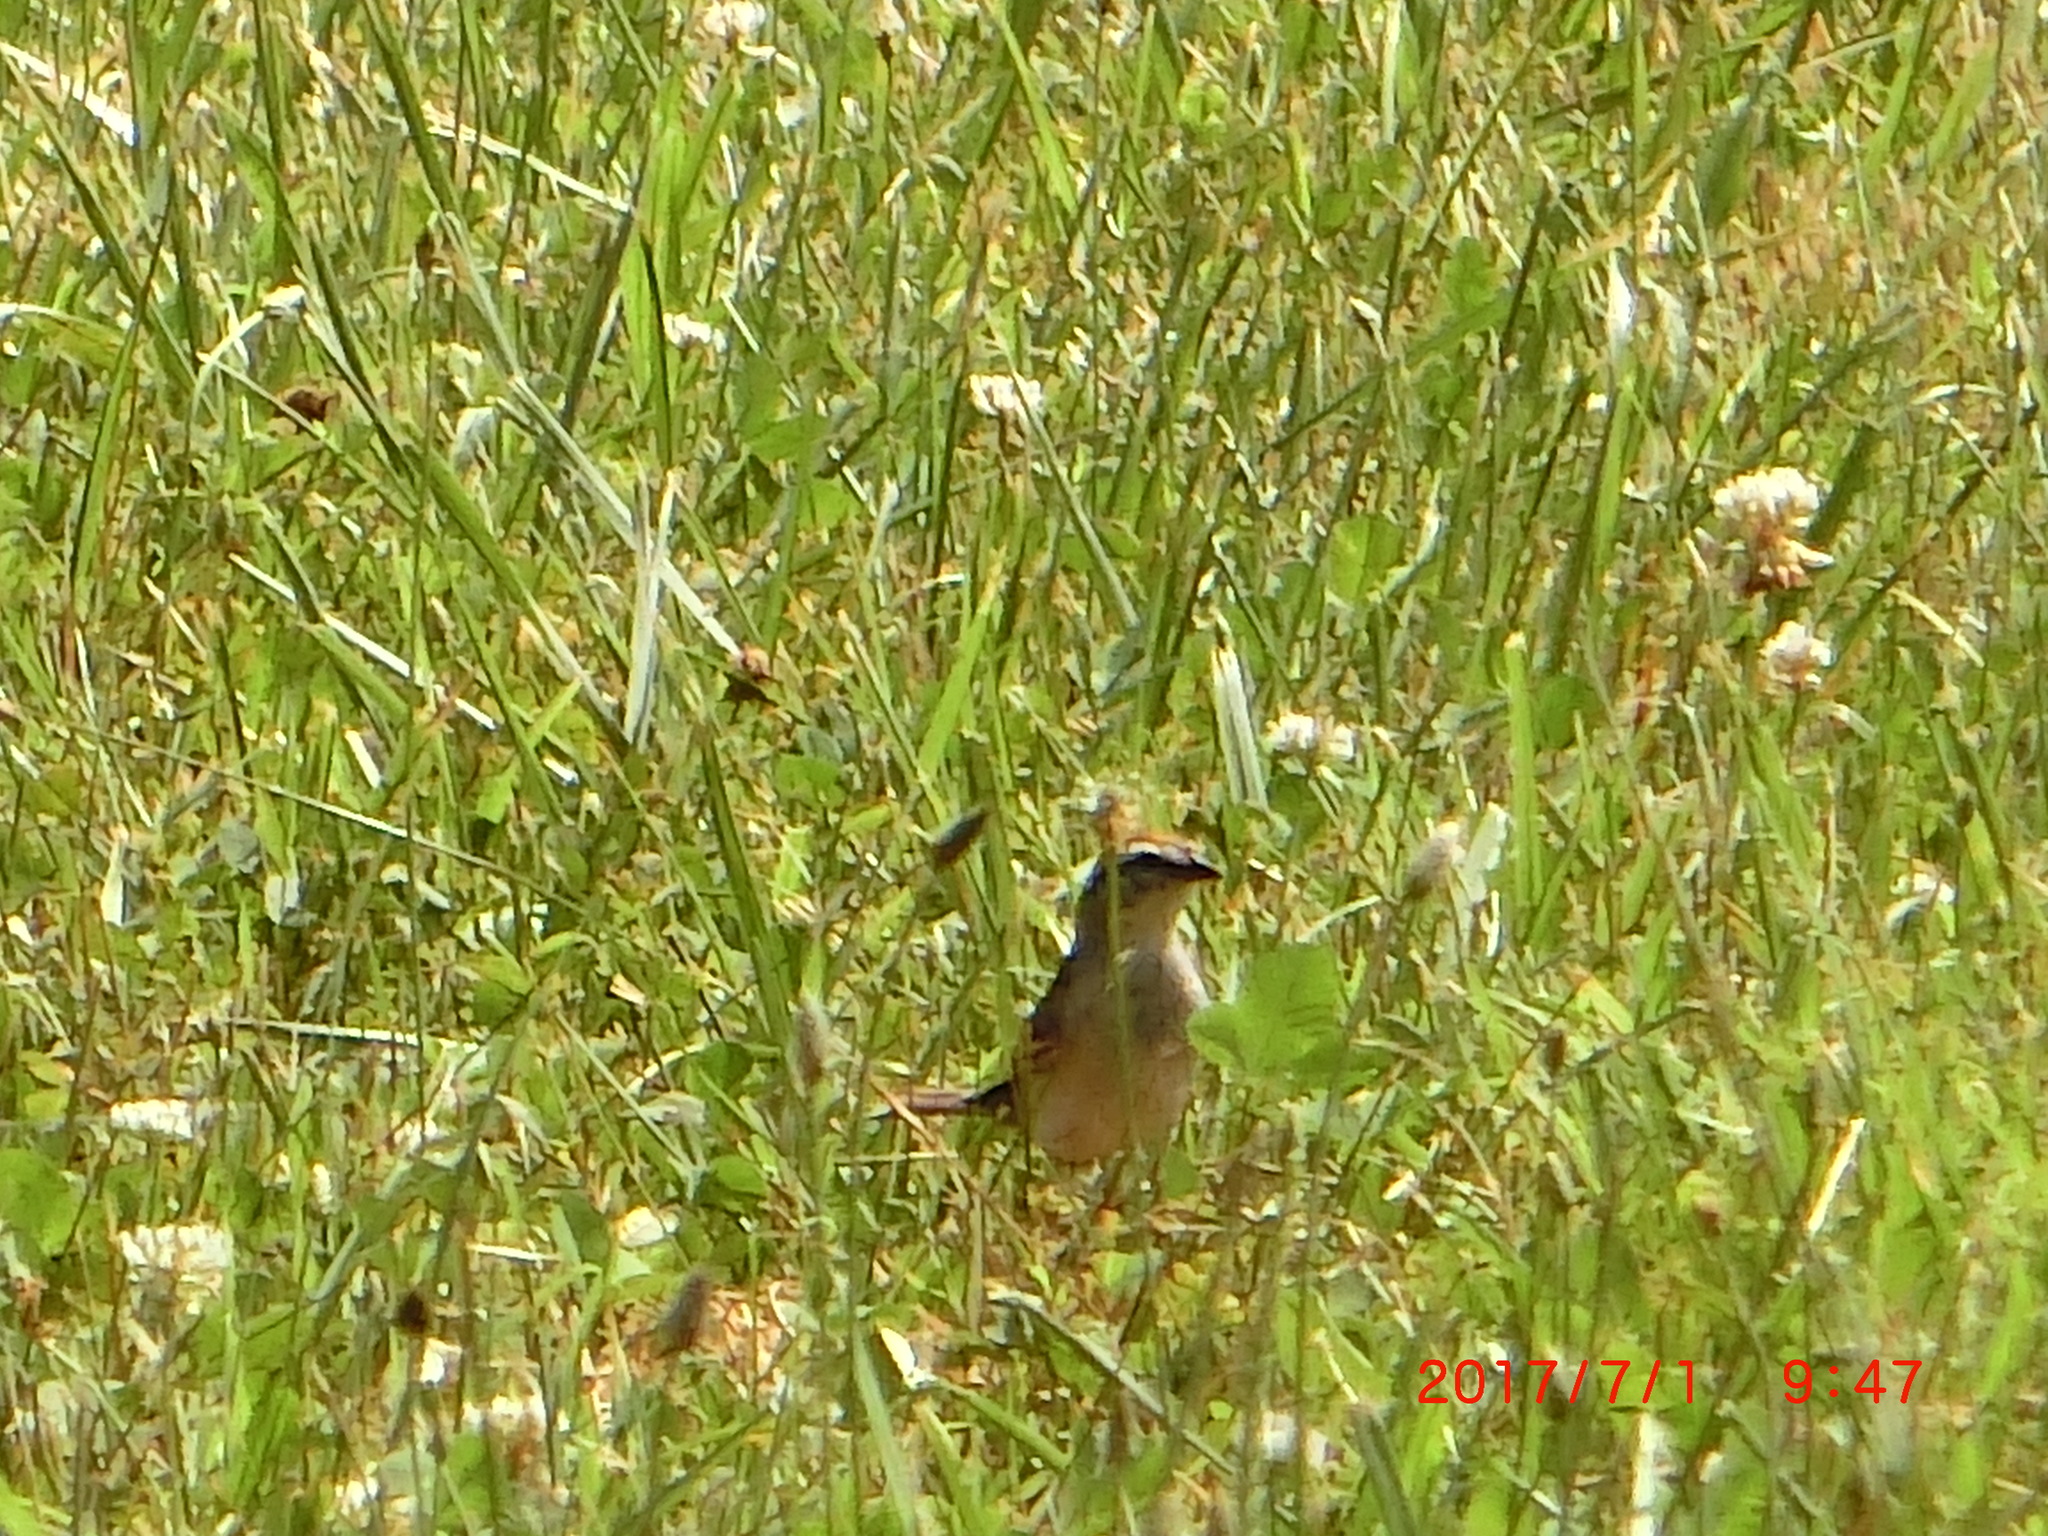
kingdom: Animalia
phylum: Chordata
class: Aves
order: Passeriformes
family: Passerellidae
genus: Spizella
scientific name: Spizella passerina
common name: Chipping sparrow
